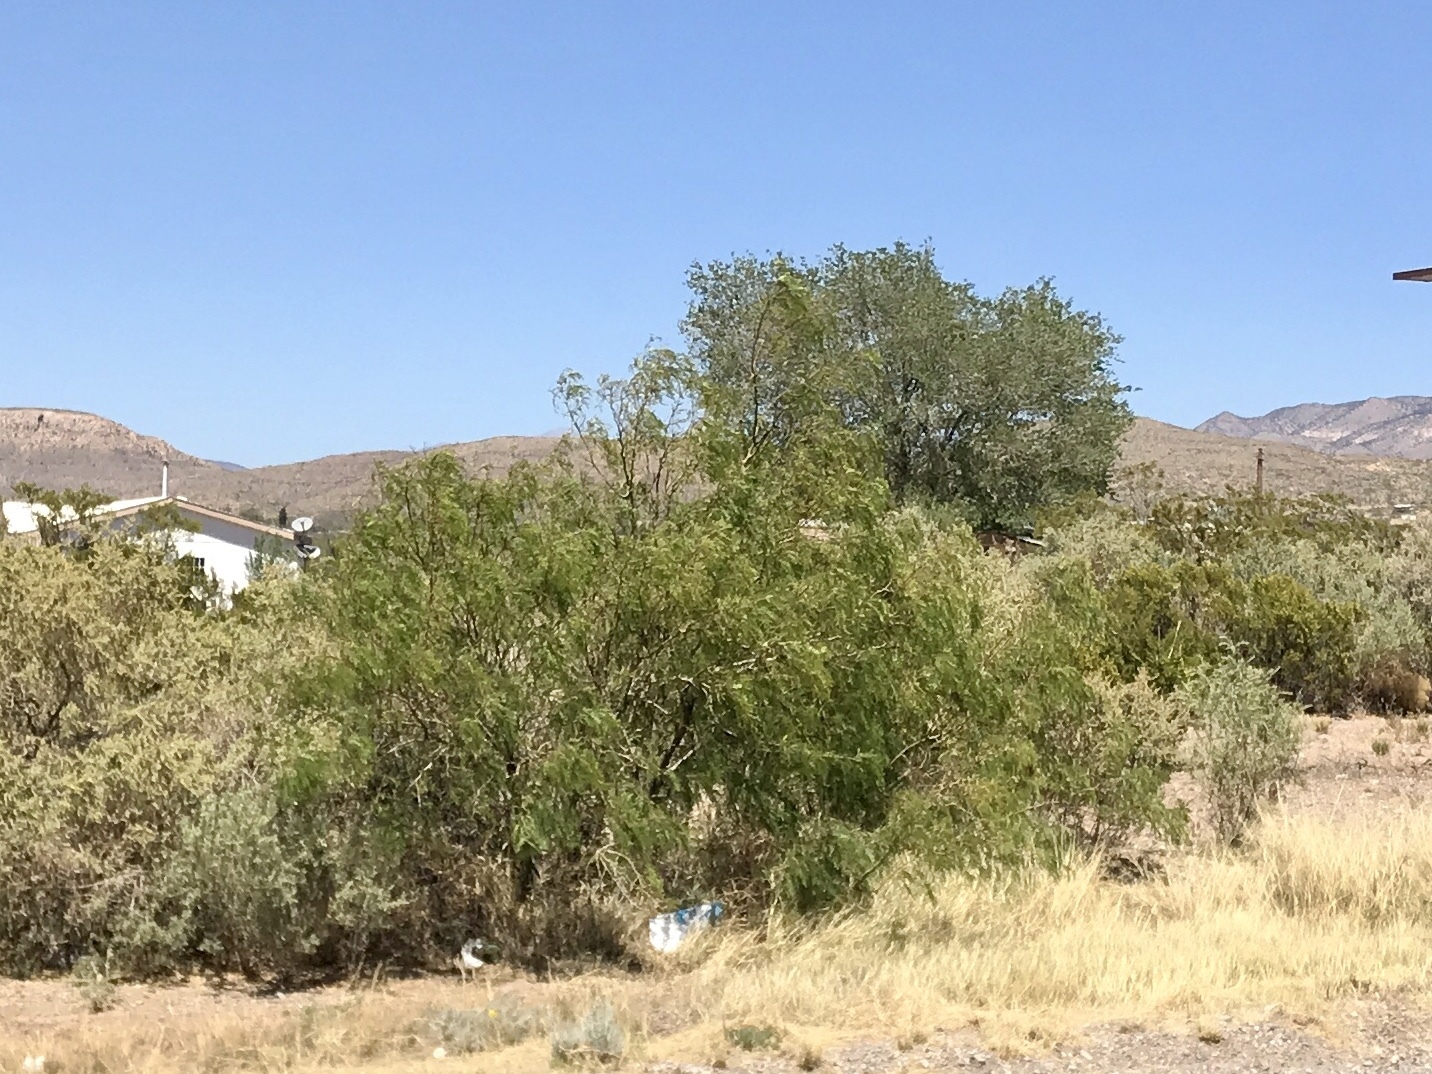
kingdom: Plantae
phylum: Tracheophyta
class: Magnoliopsida
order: Fabales
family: Fabaceae
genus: Prosopis
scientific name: Prosopis glandulosa
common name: Honey mesquite
